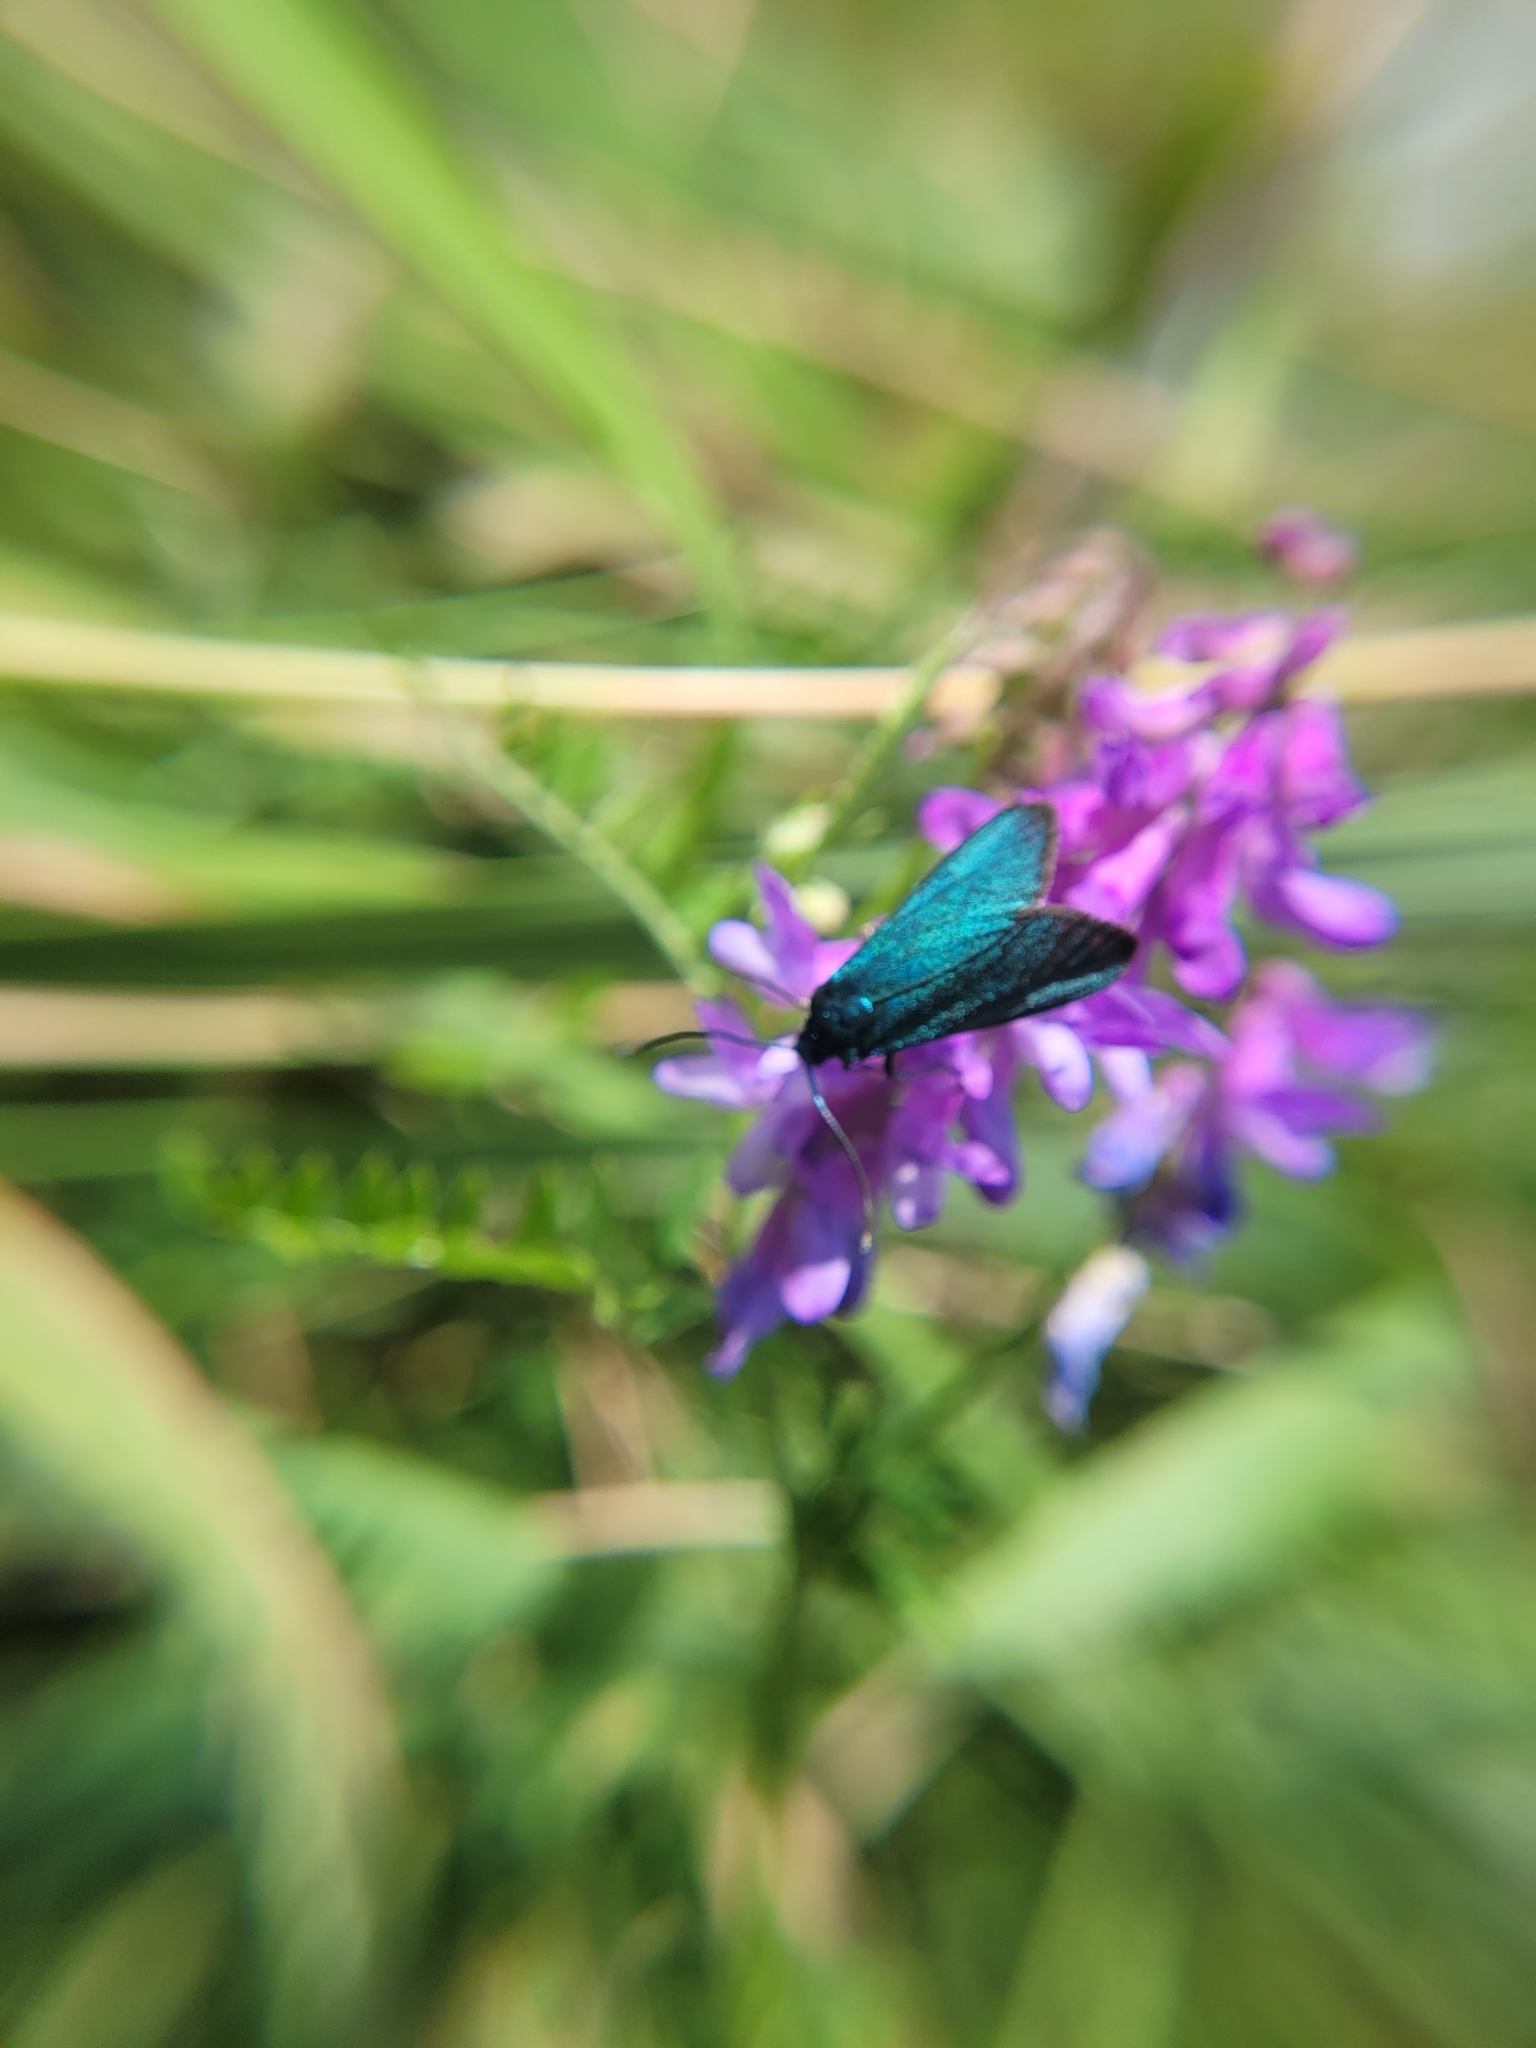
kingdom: Animalia
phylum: Arthropoda
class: Insecta
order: Lepidoptera
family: Zygaenidae
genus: Adscita
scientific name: Adscita statices
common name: Forester
